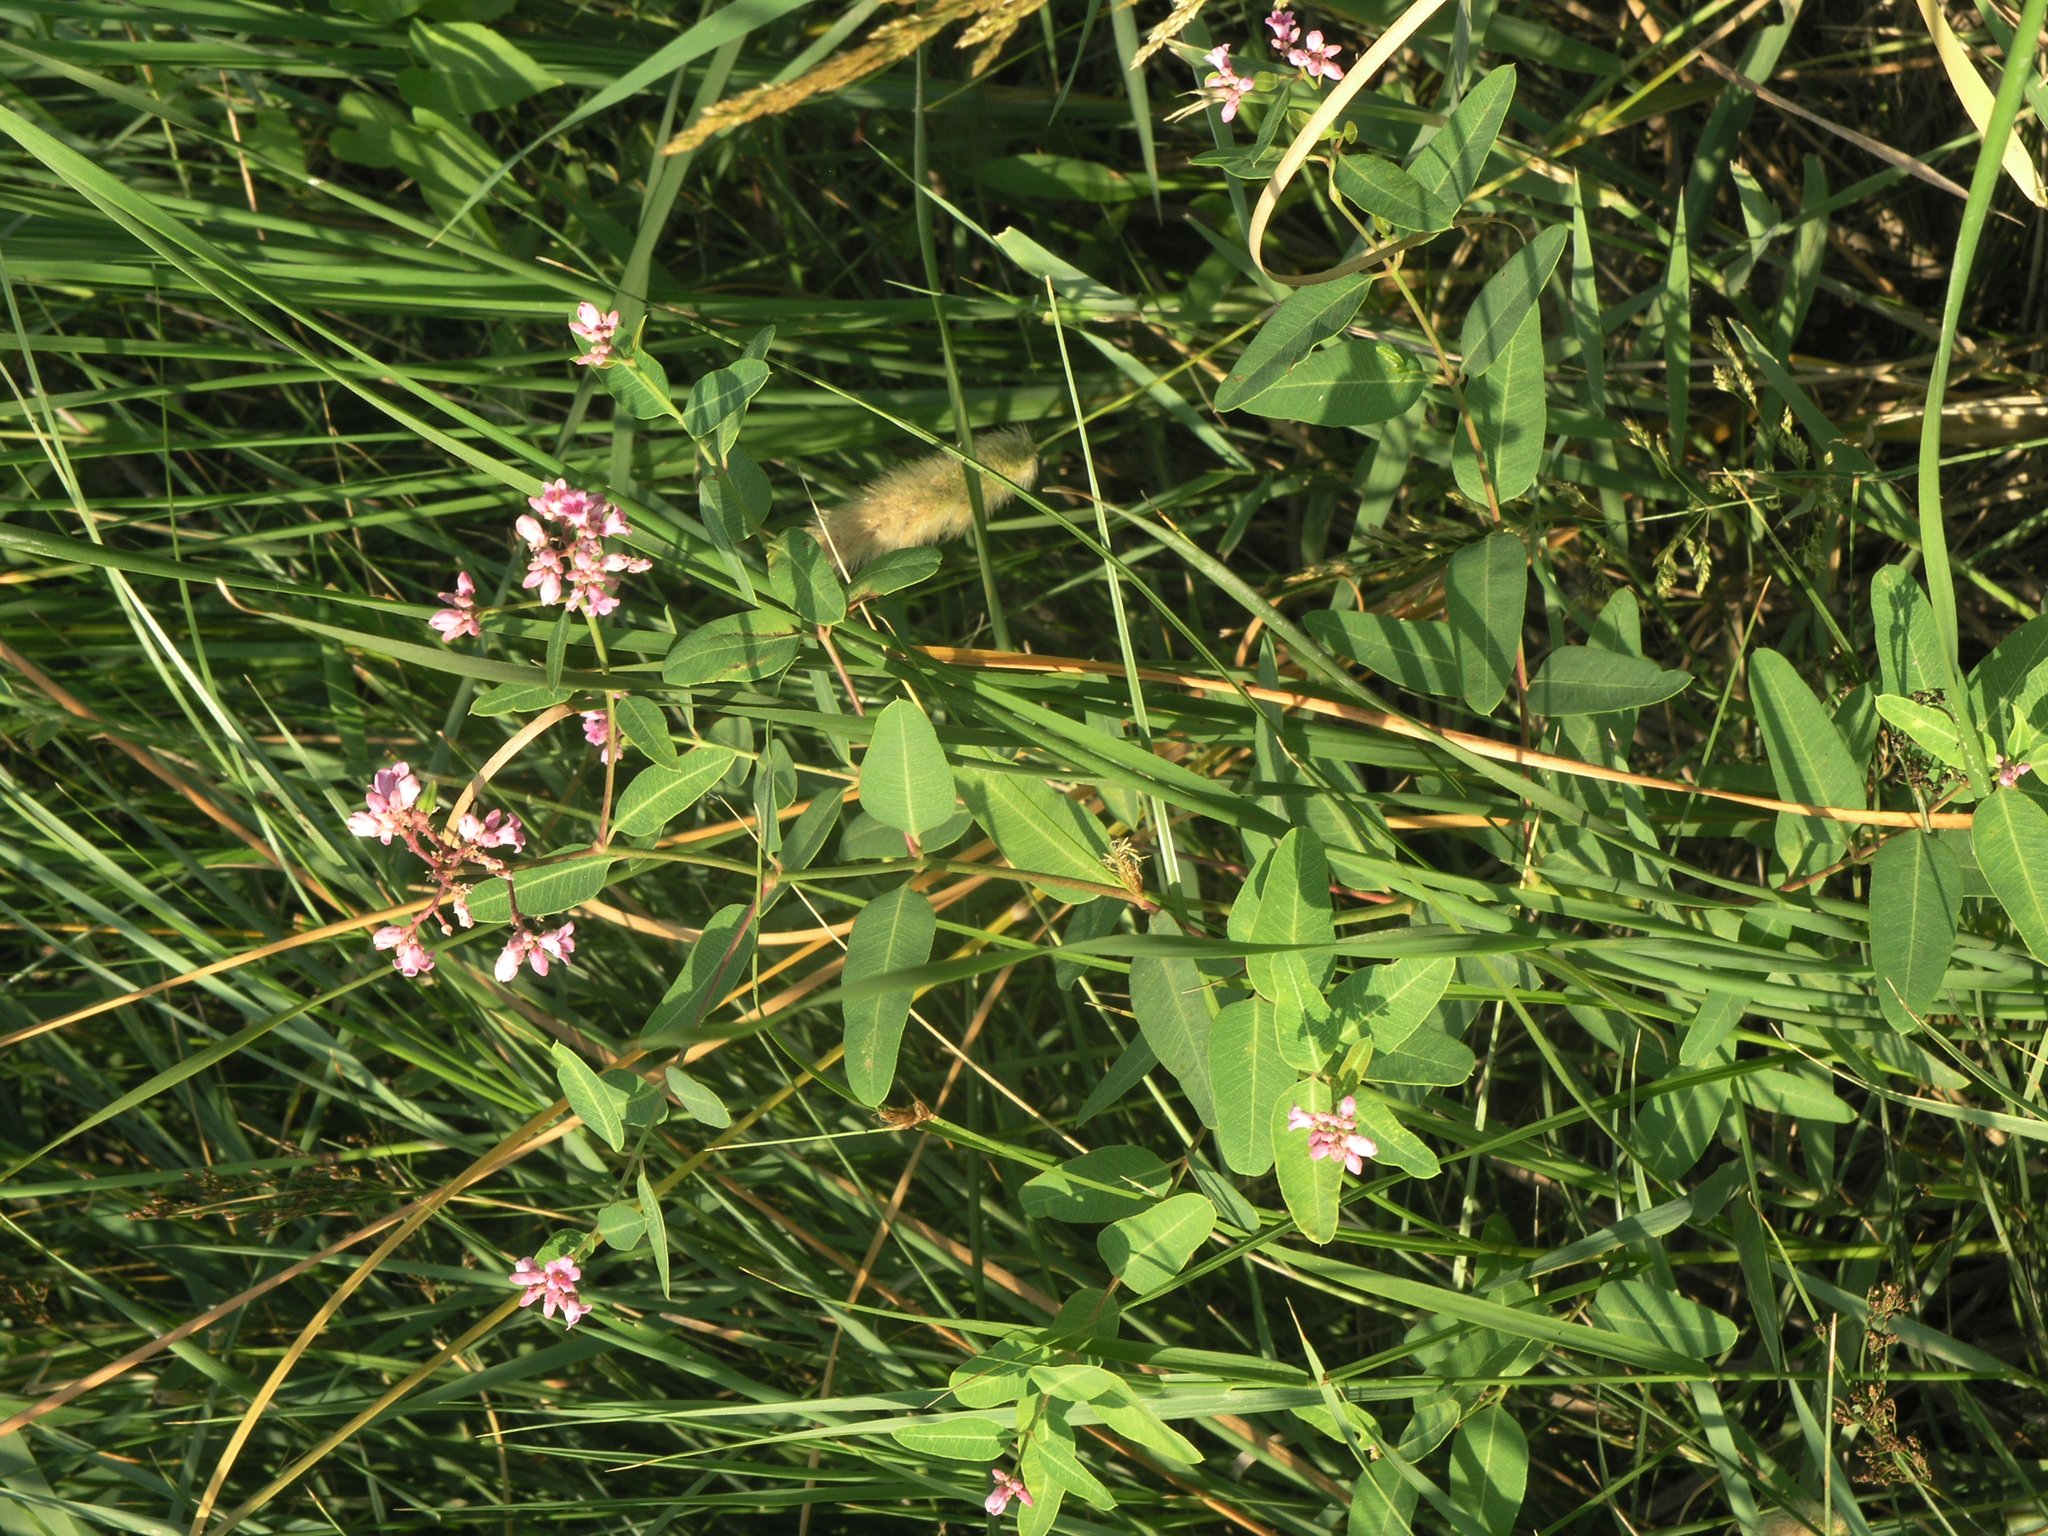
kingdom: Plantae
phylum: Tracheophyta
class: Magnoliopsida
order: Gentianales
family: Apocynaceae
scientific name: Apocynaceae
